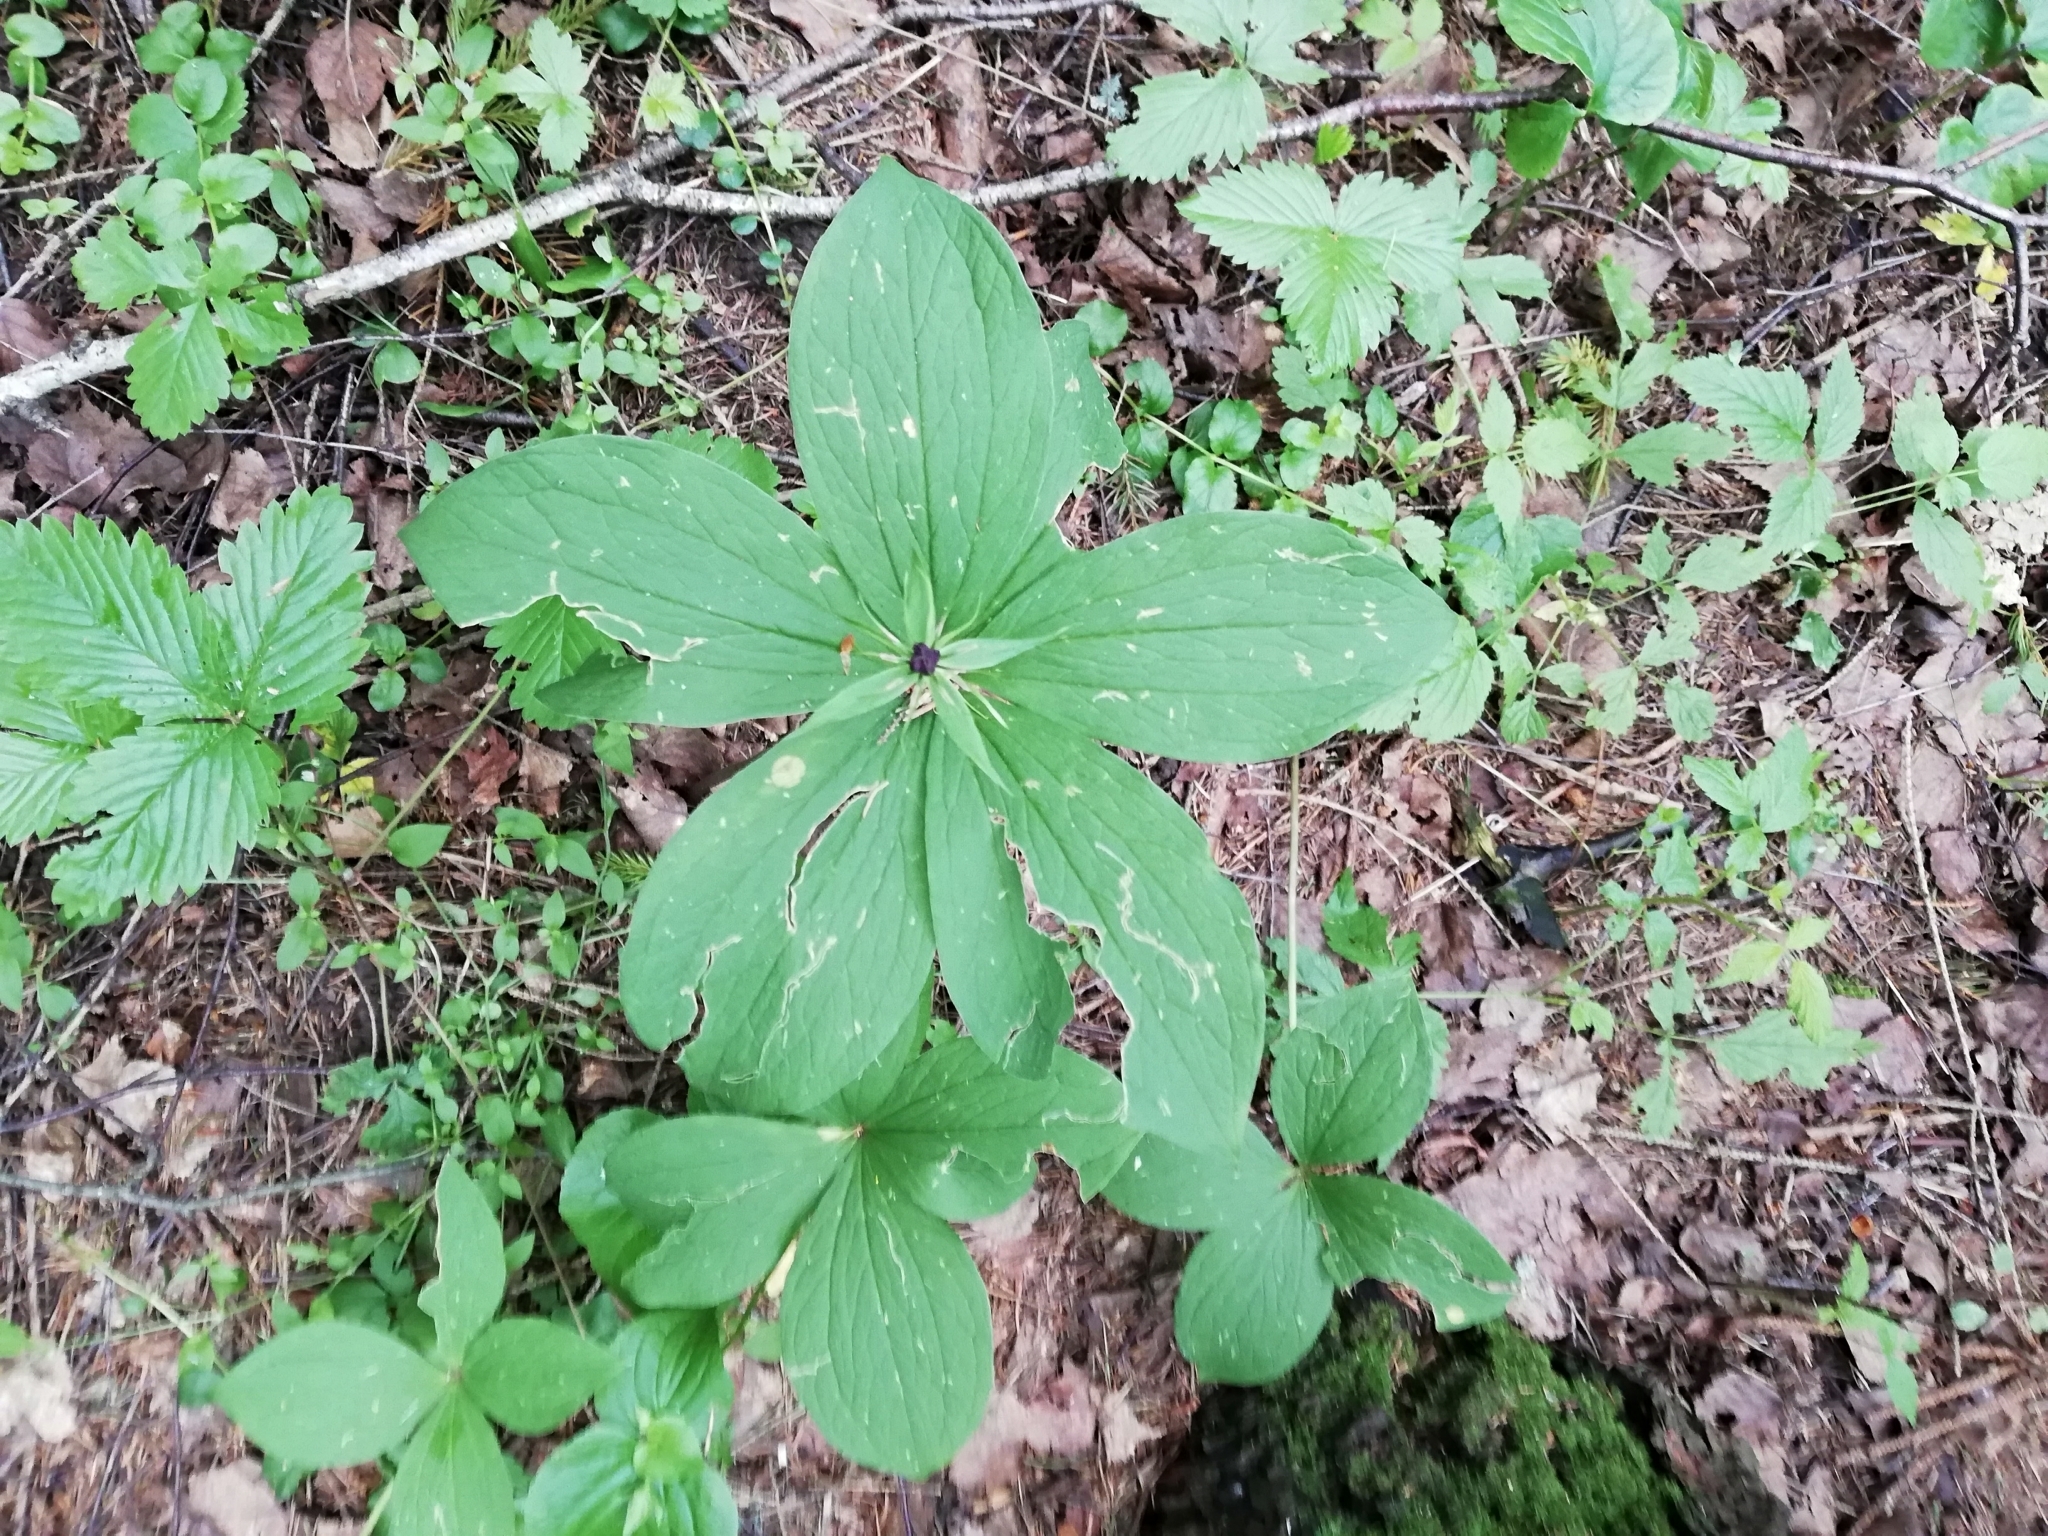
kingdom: Plantae
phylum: Tracheophyta
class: Liliopsida
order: Liliales
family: Melanthiaceae
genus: Paris
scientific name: Paris quadrifolia
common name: Herb-paris
